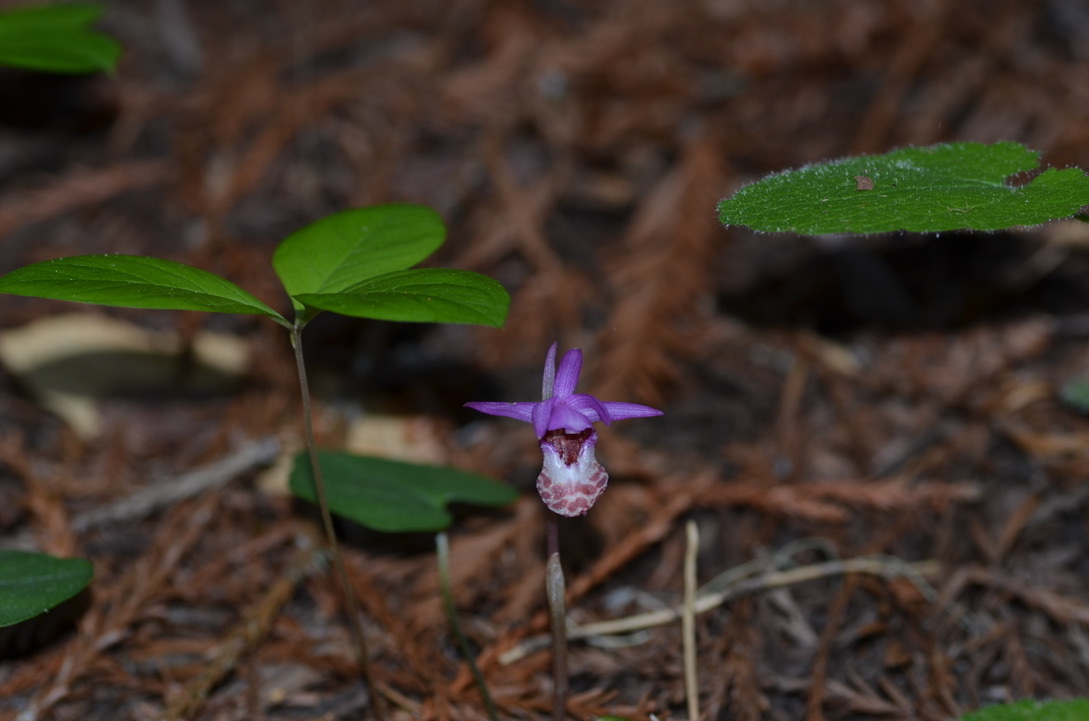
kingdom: Plantae
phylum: Tracheophyta
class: Liliopsida
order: Asparagales
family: Orchidaceae
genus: Calypso
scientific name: Calypso bulbosa
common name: Calypso
